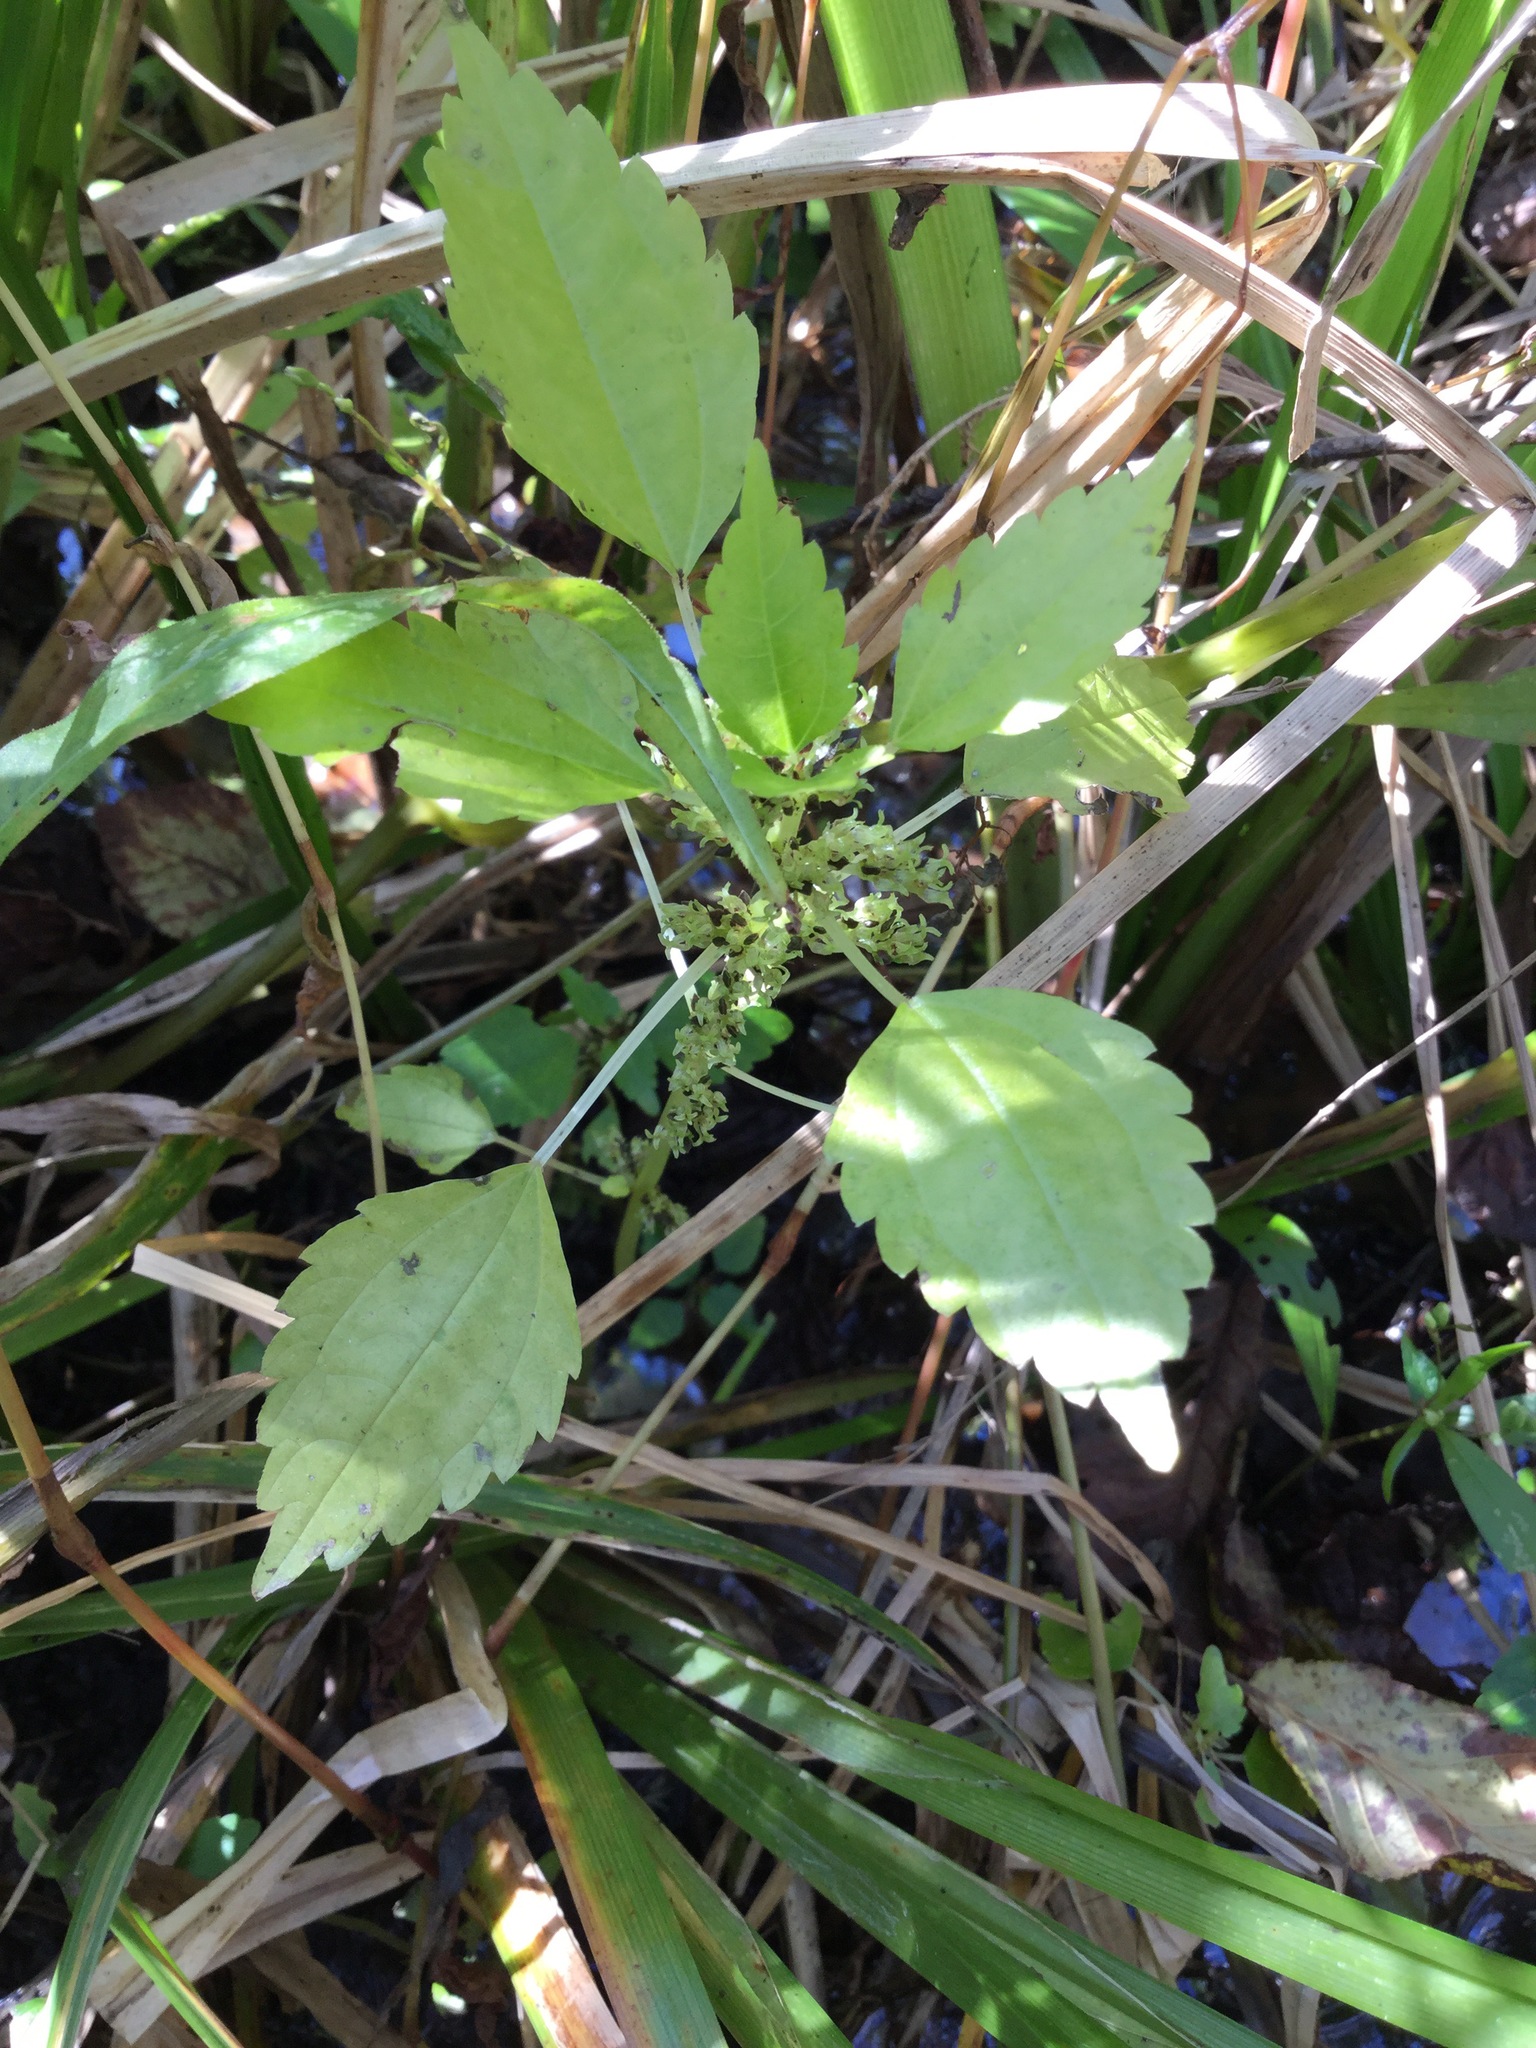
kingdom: Plantae
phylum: Tracheophyta
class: Magnoliopsida
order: Rosales
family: Urticaceae
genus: Pilea
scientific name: Pilea pumila
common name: Clearweed
